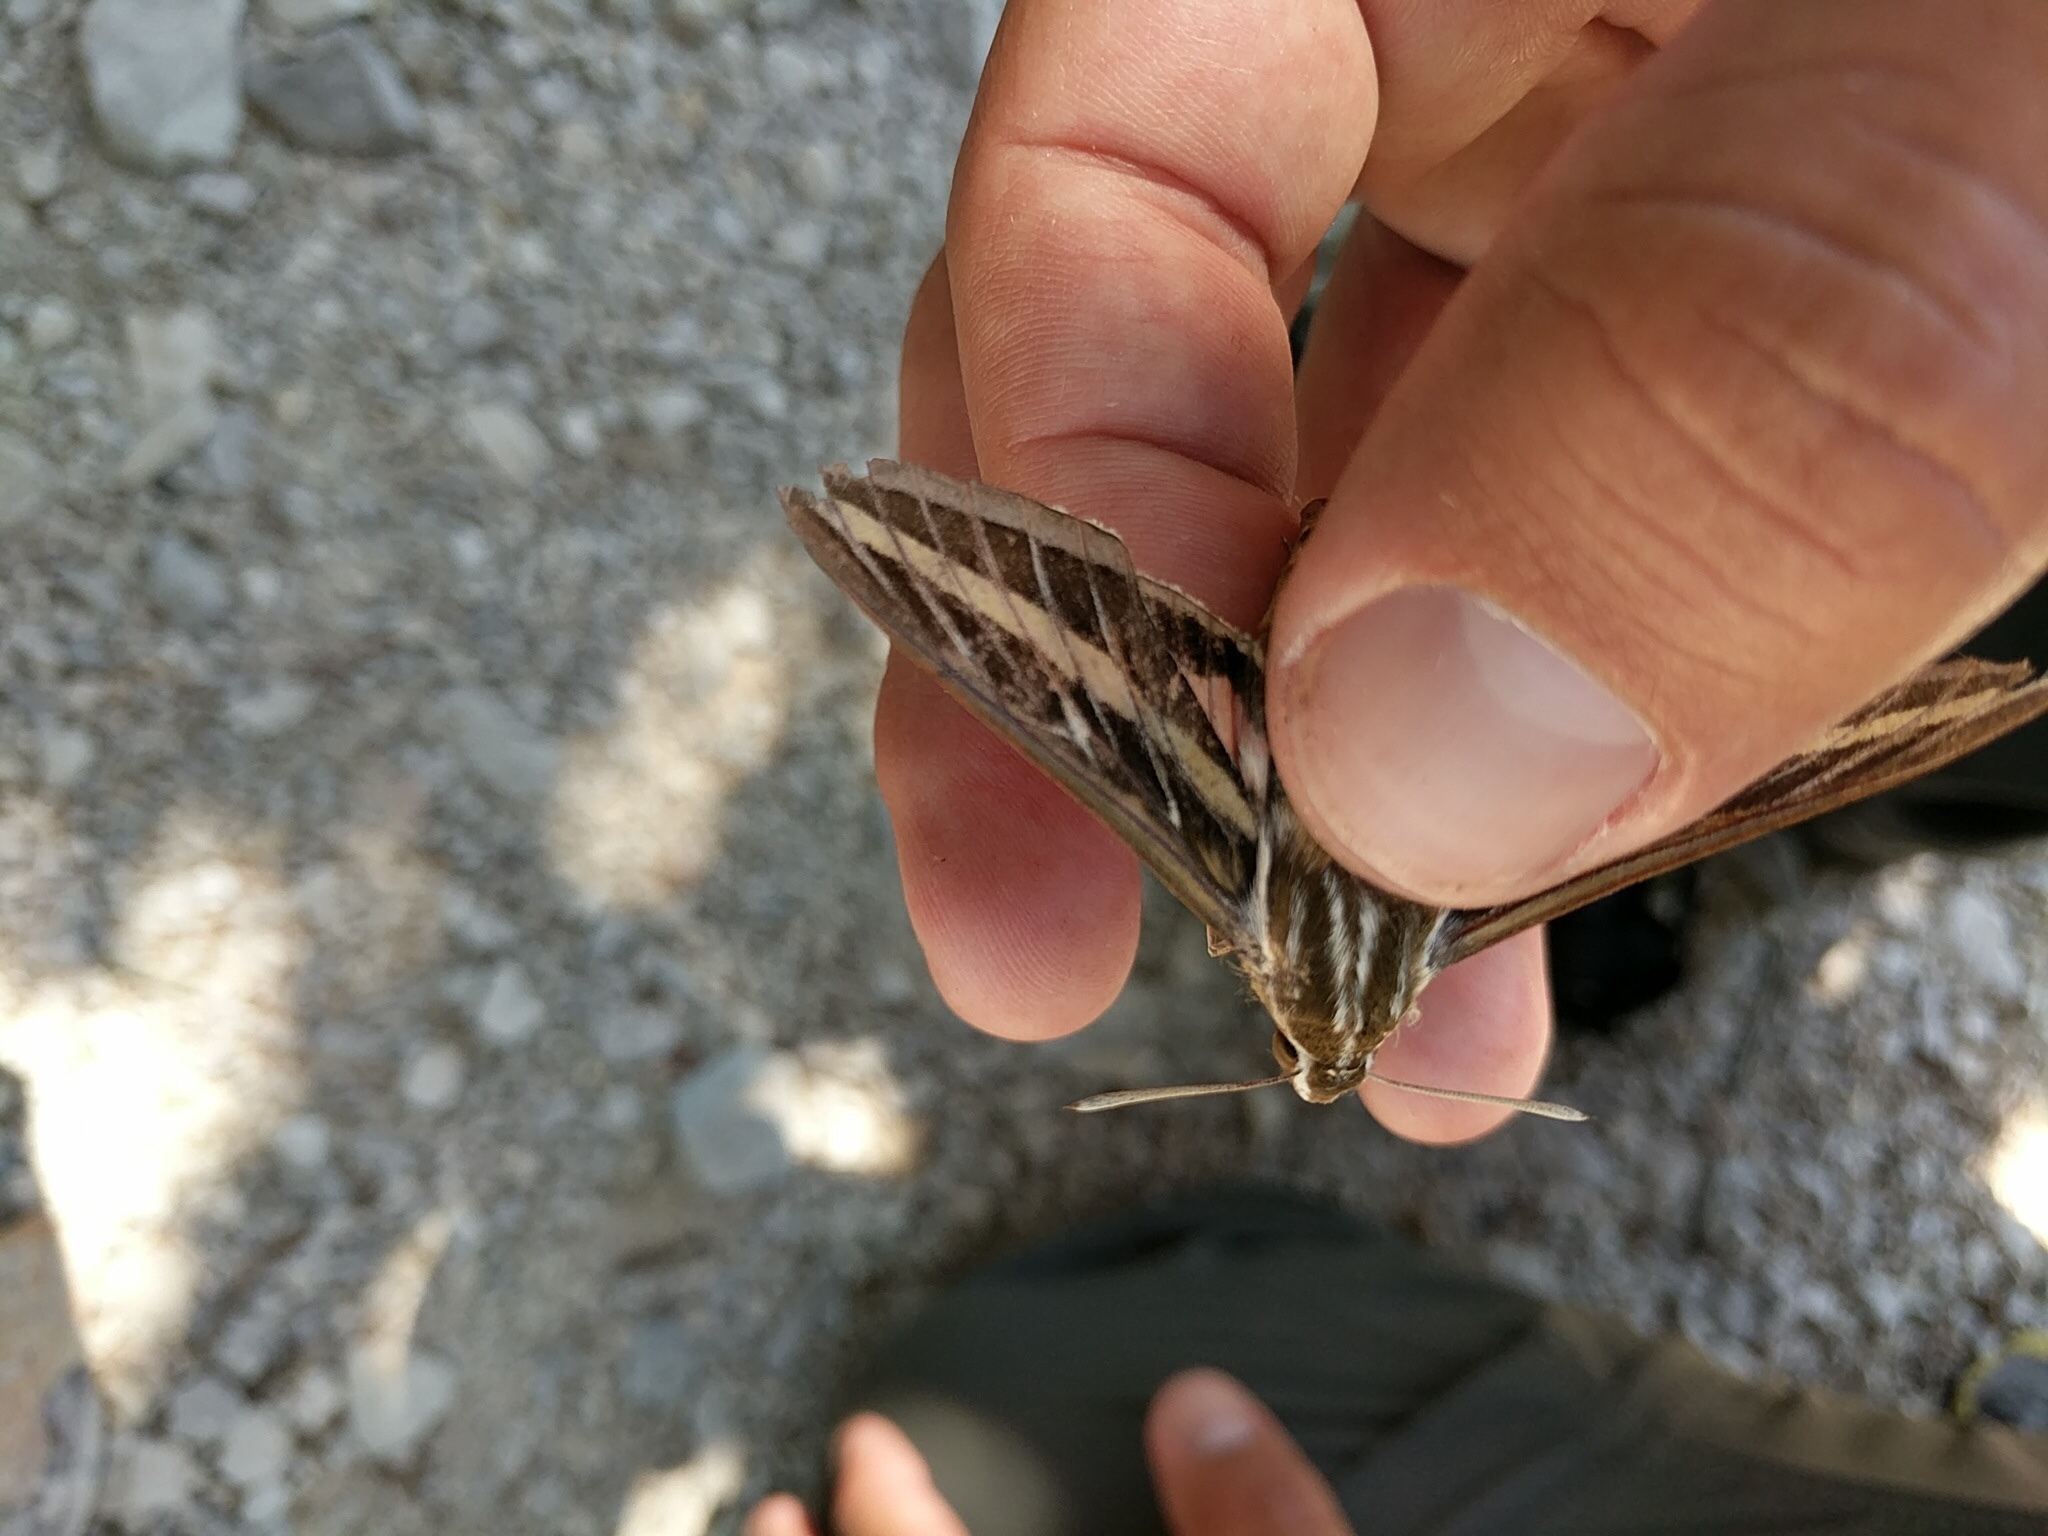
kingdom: Animalia
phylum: Arthropoda
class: Insecta
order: Lepidoptera
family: Sphingidae
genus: Hyles
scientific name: Hyles lineata
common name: White-lined sphinx
